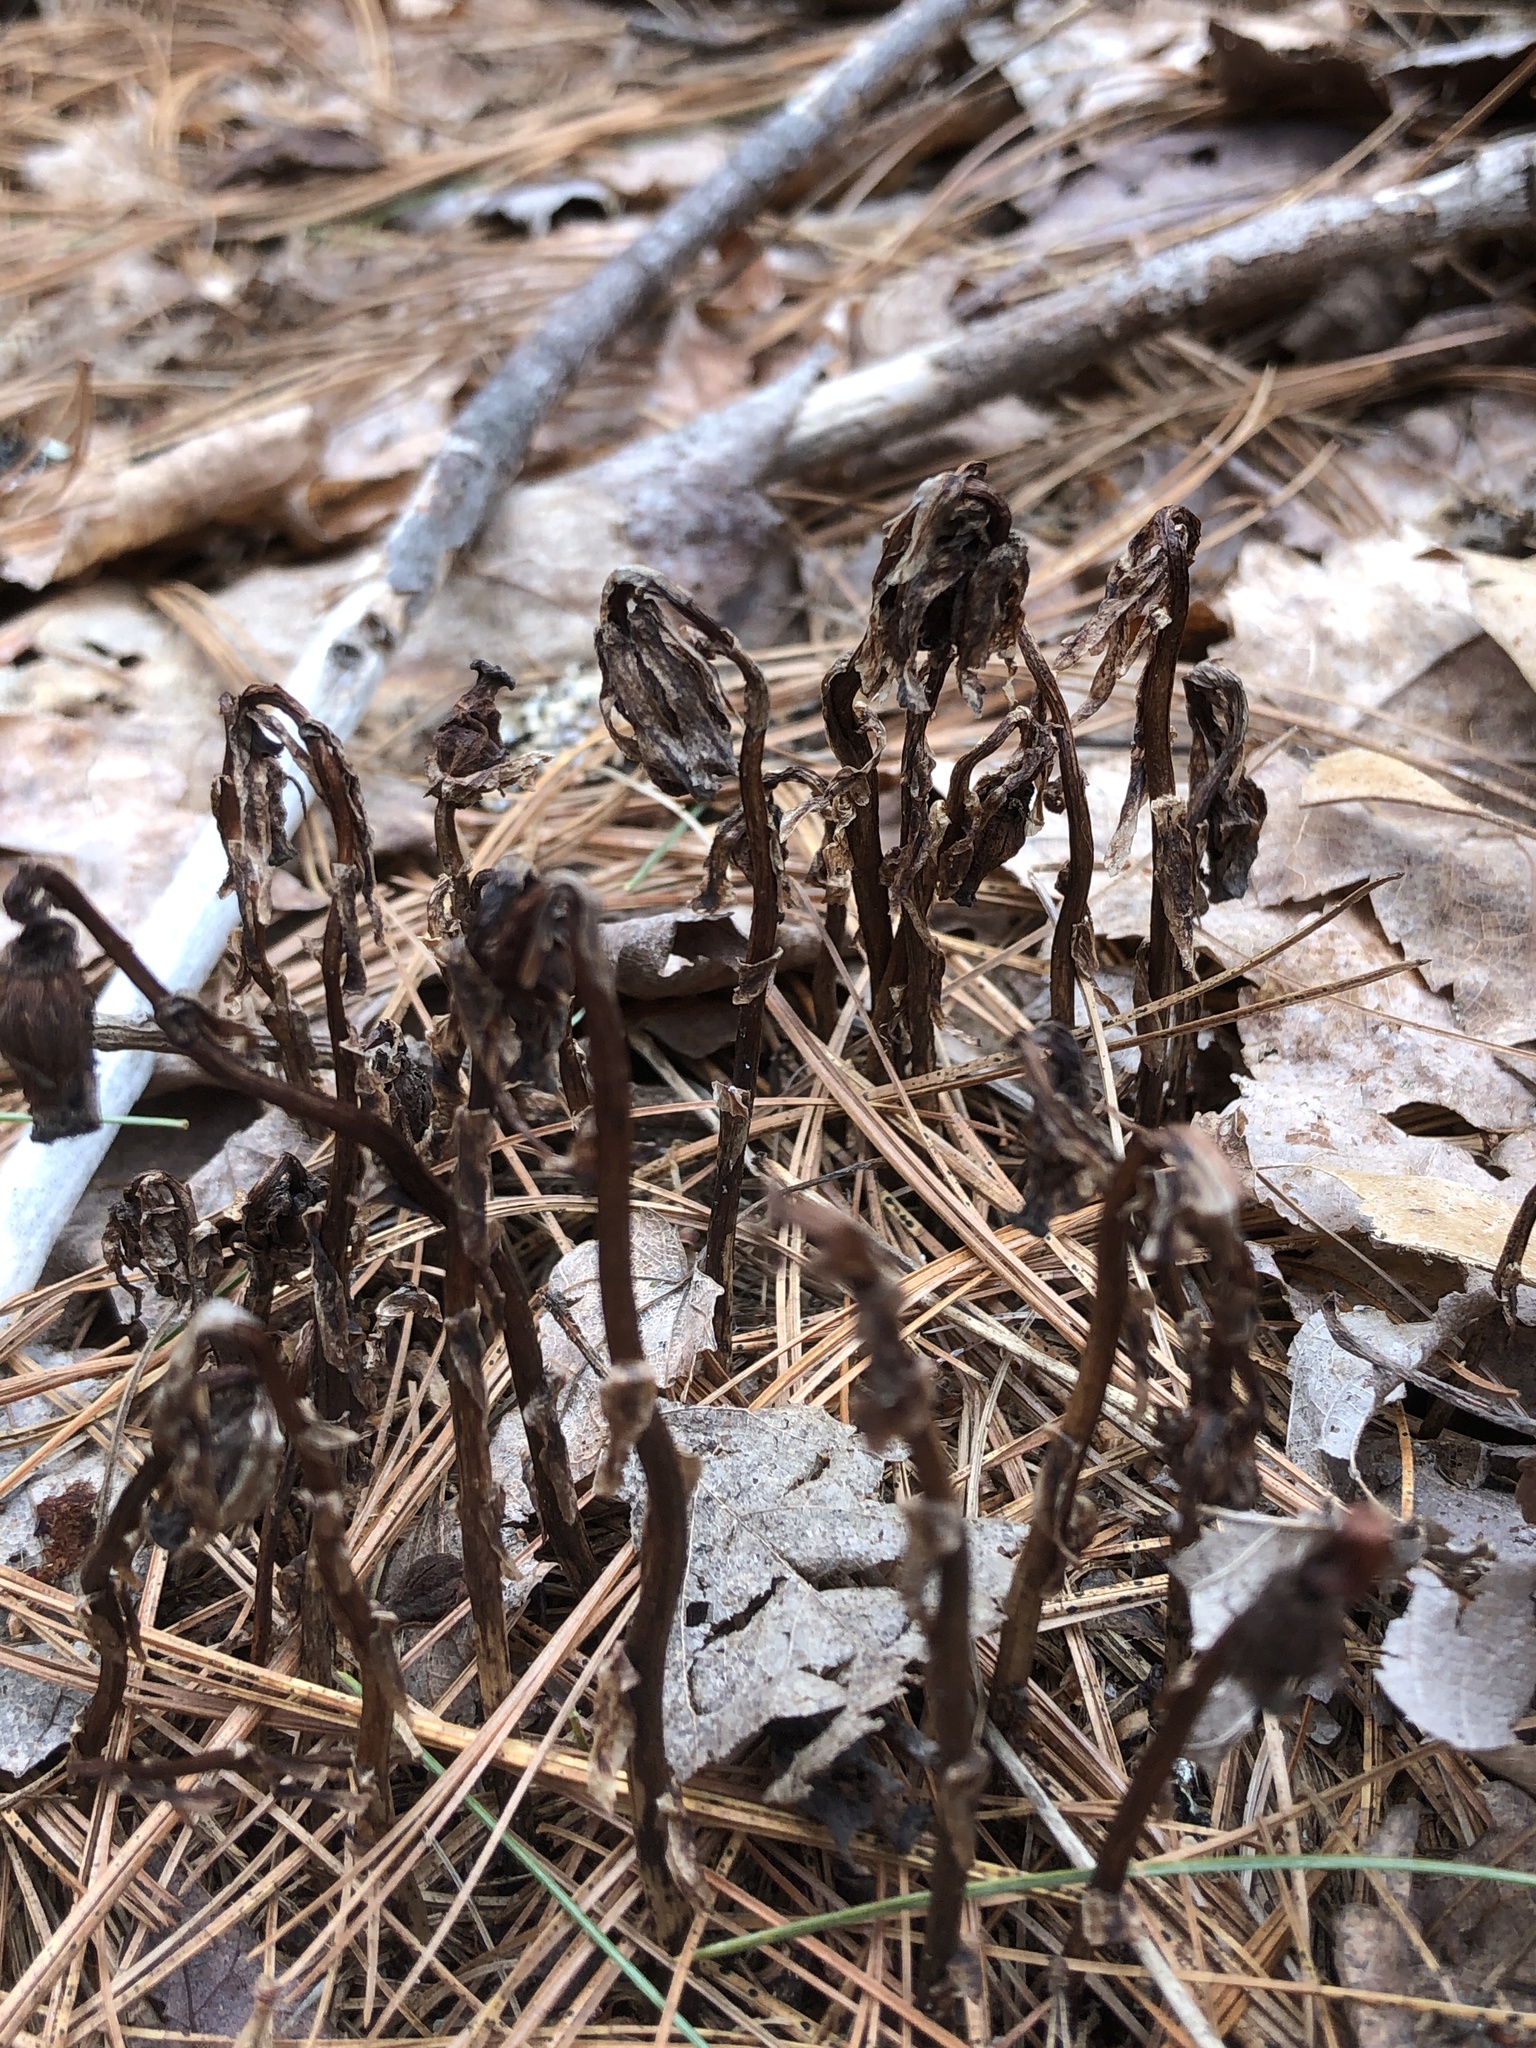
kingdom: Plantae
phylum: Tracheophyta
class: Magnoliopsida
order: Ericales
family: Ericaceae
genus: Monotropa
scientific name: Monotropa uniflora
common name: Convulsion root
